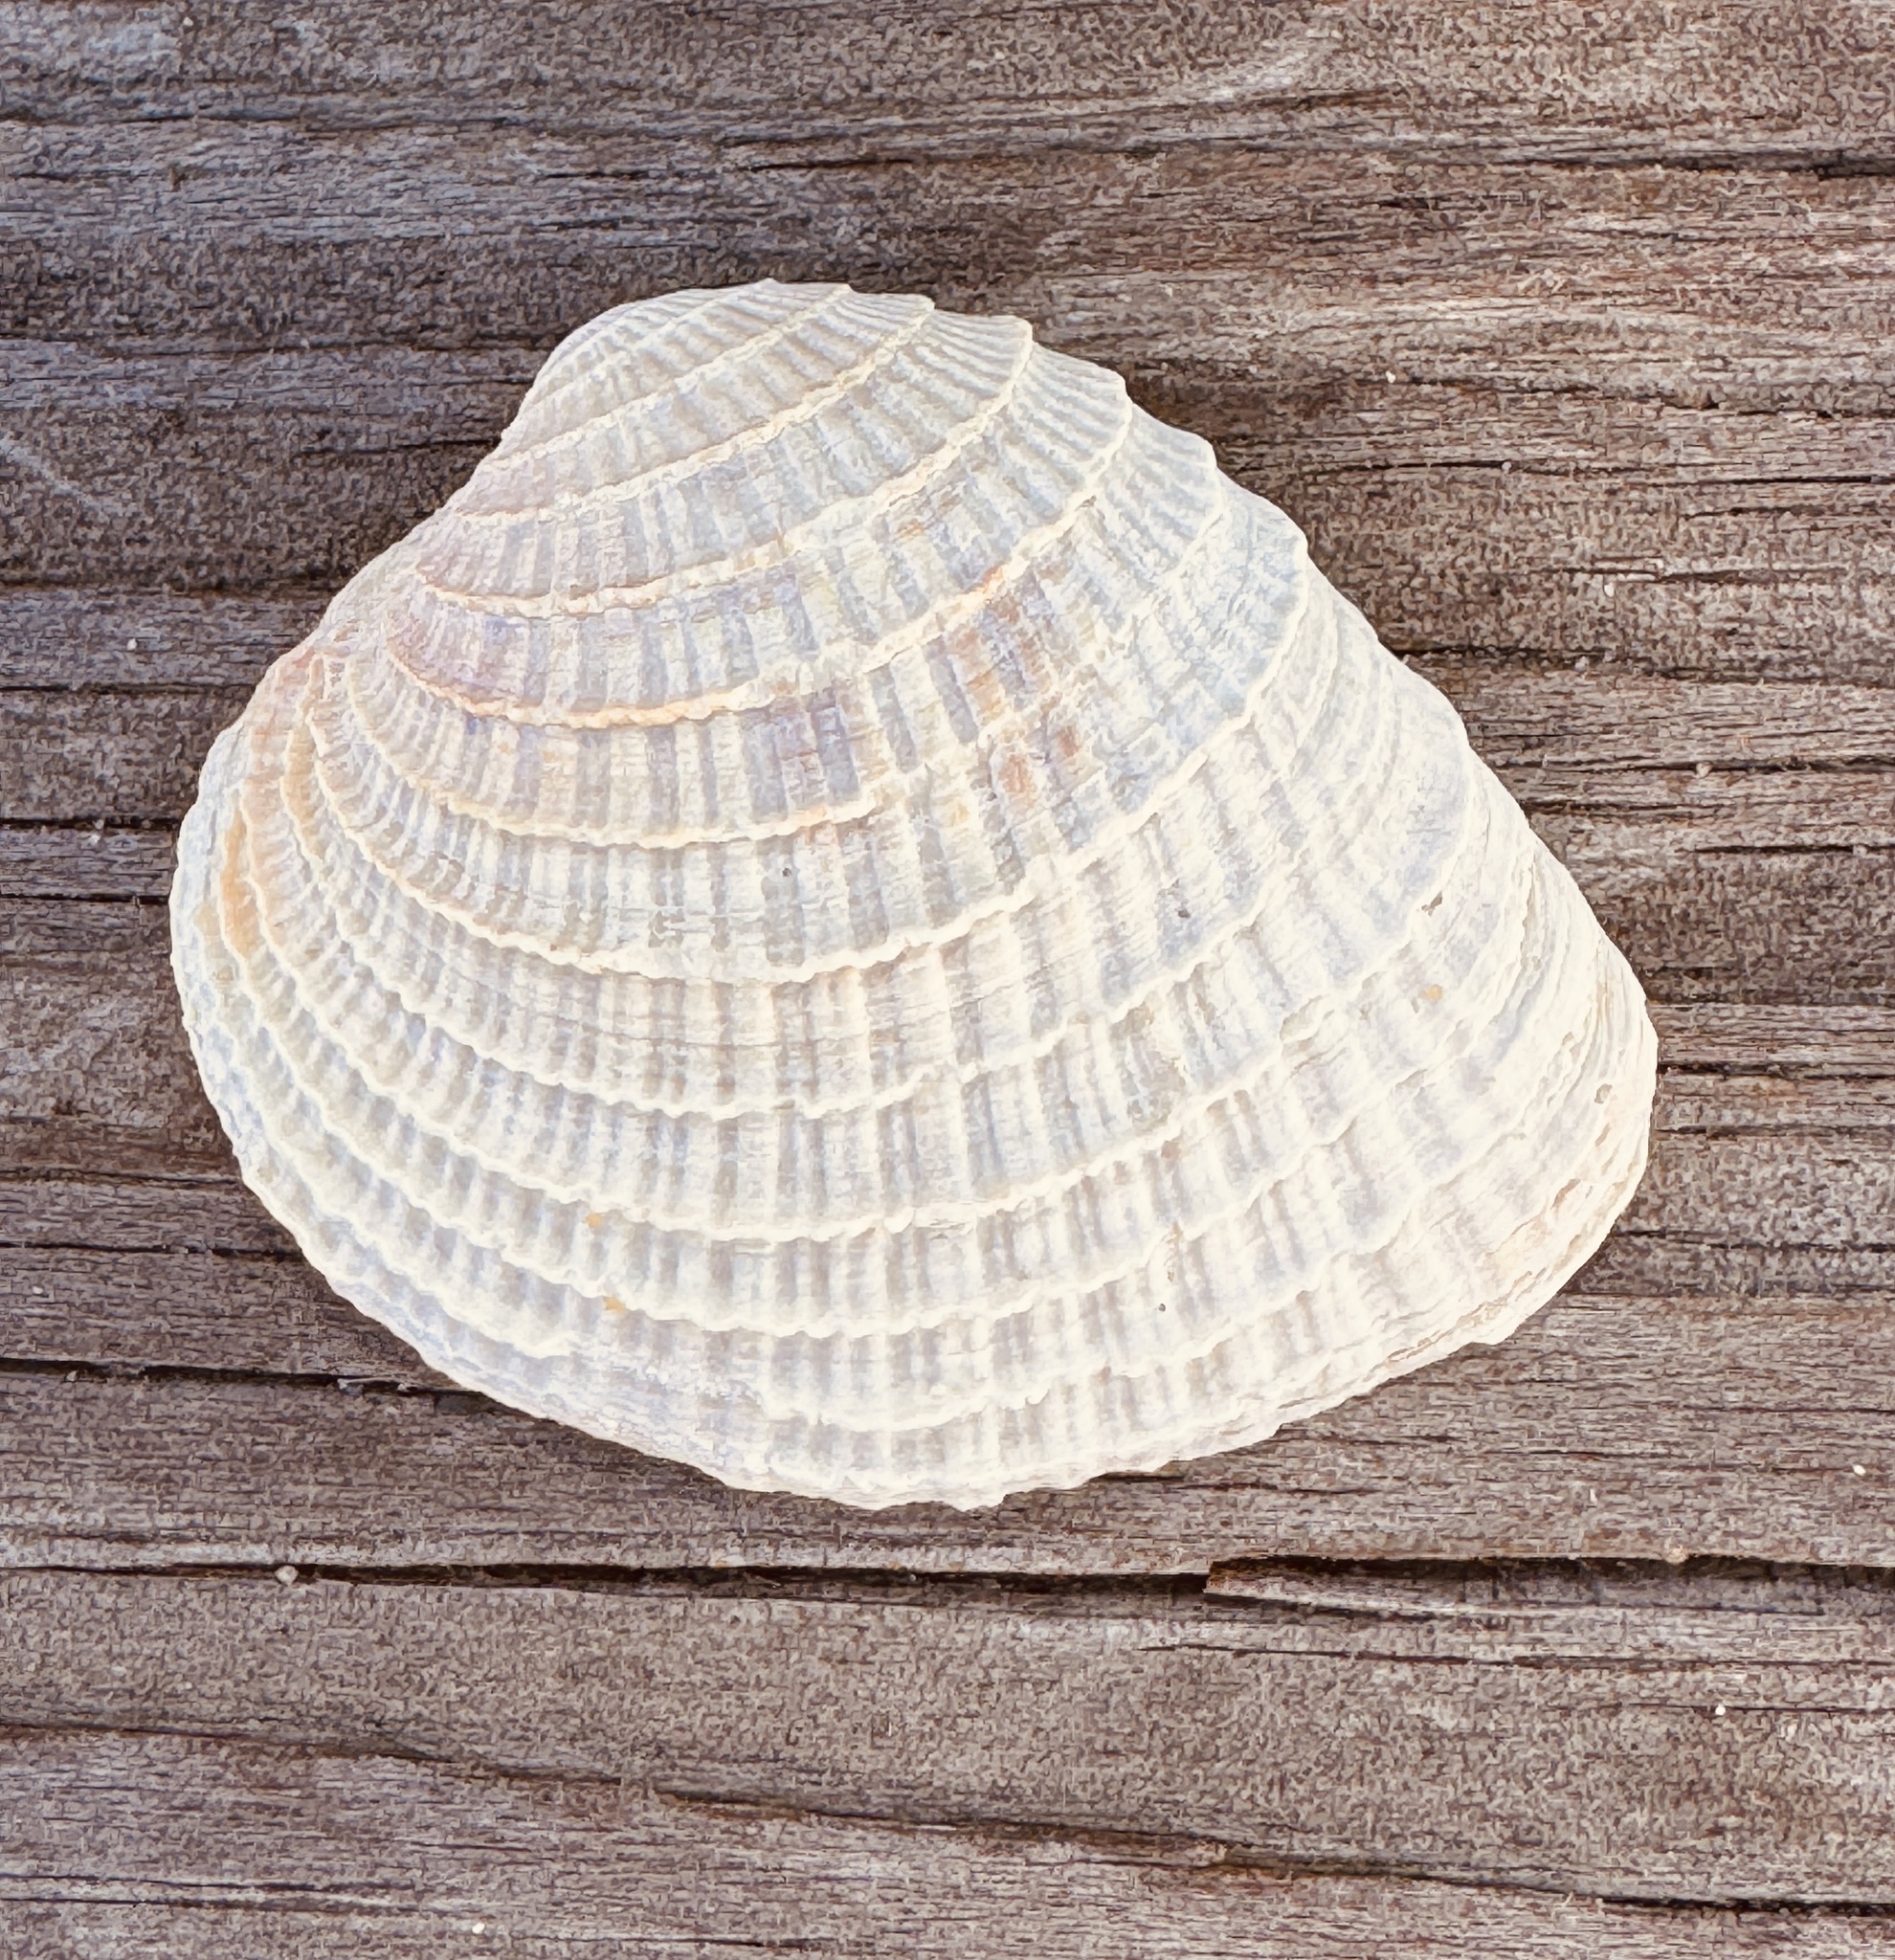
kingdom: Animalia
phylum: Mollusca
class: Bivalvia
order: Venerida
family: Veneridae
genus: Chione
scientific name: Chione elevata
